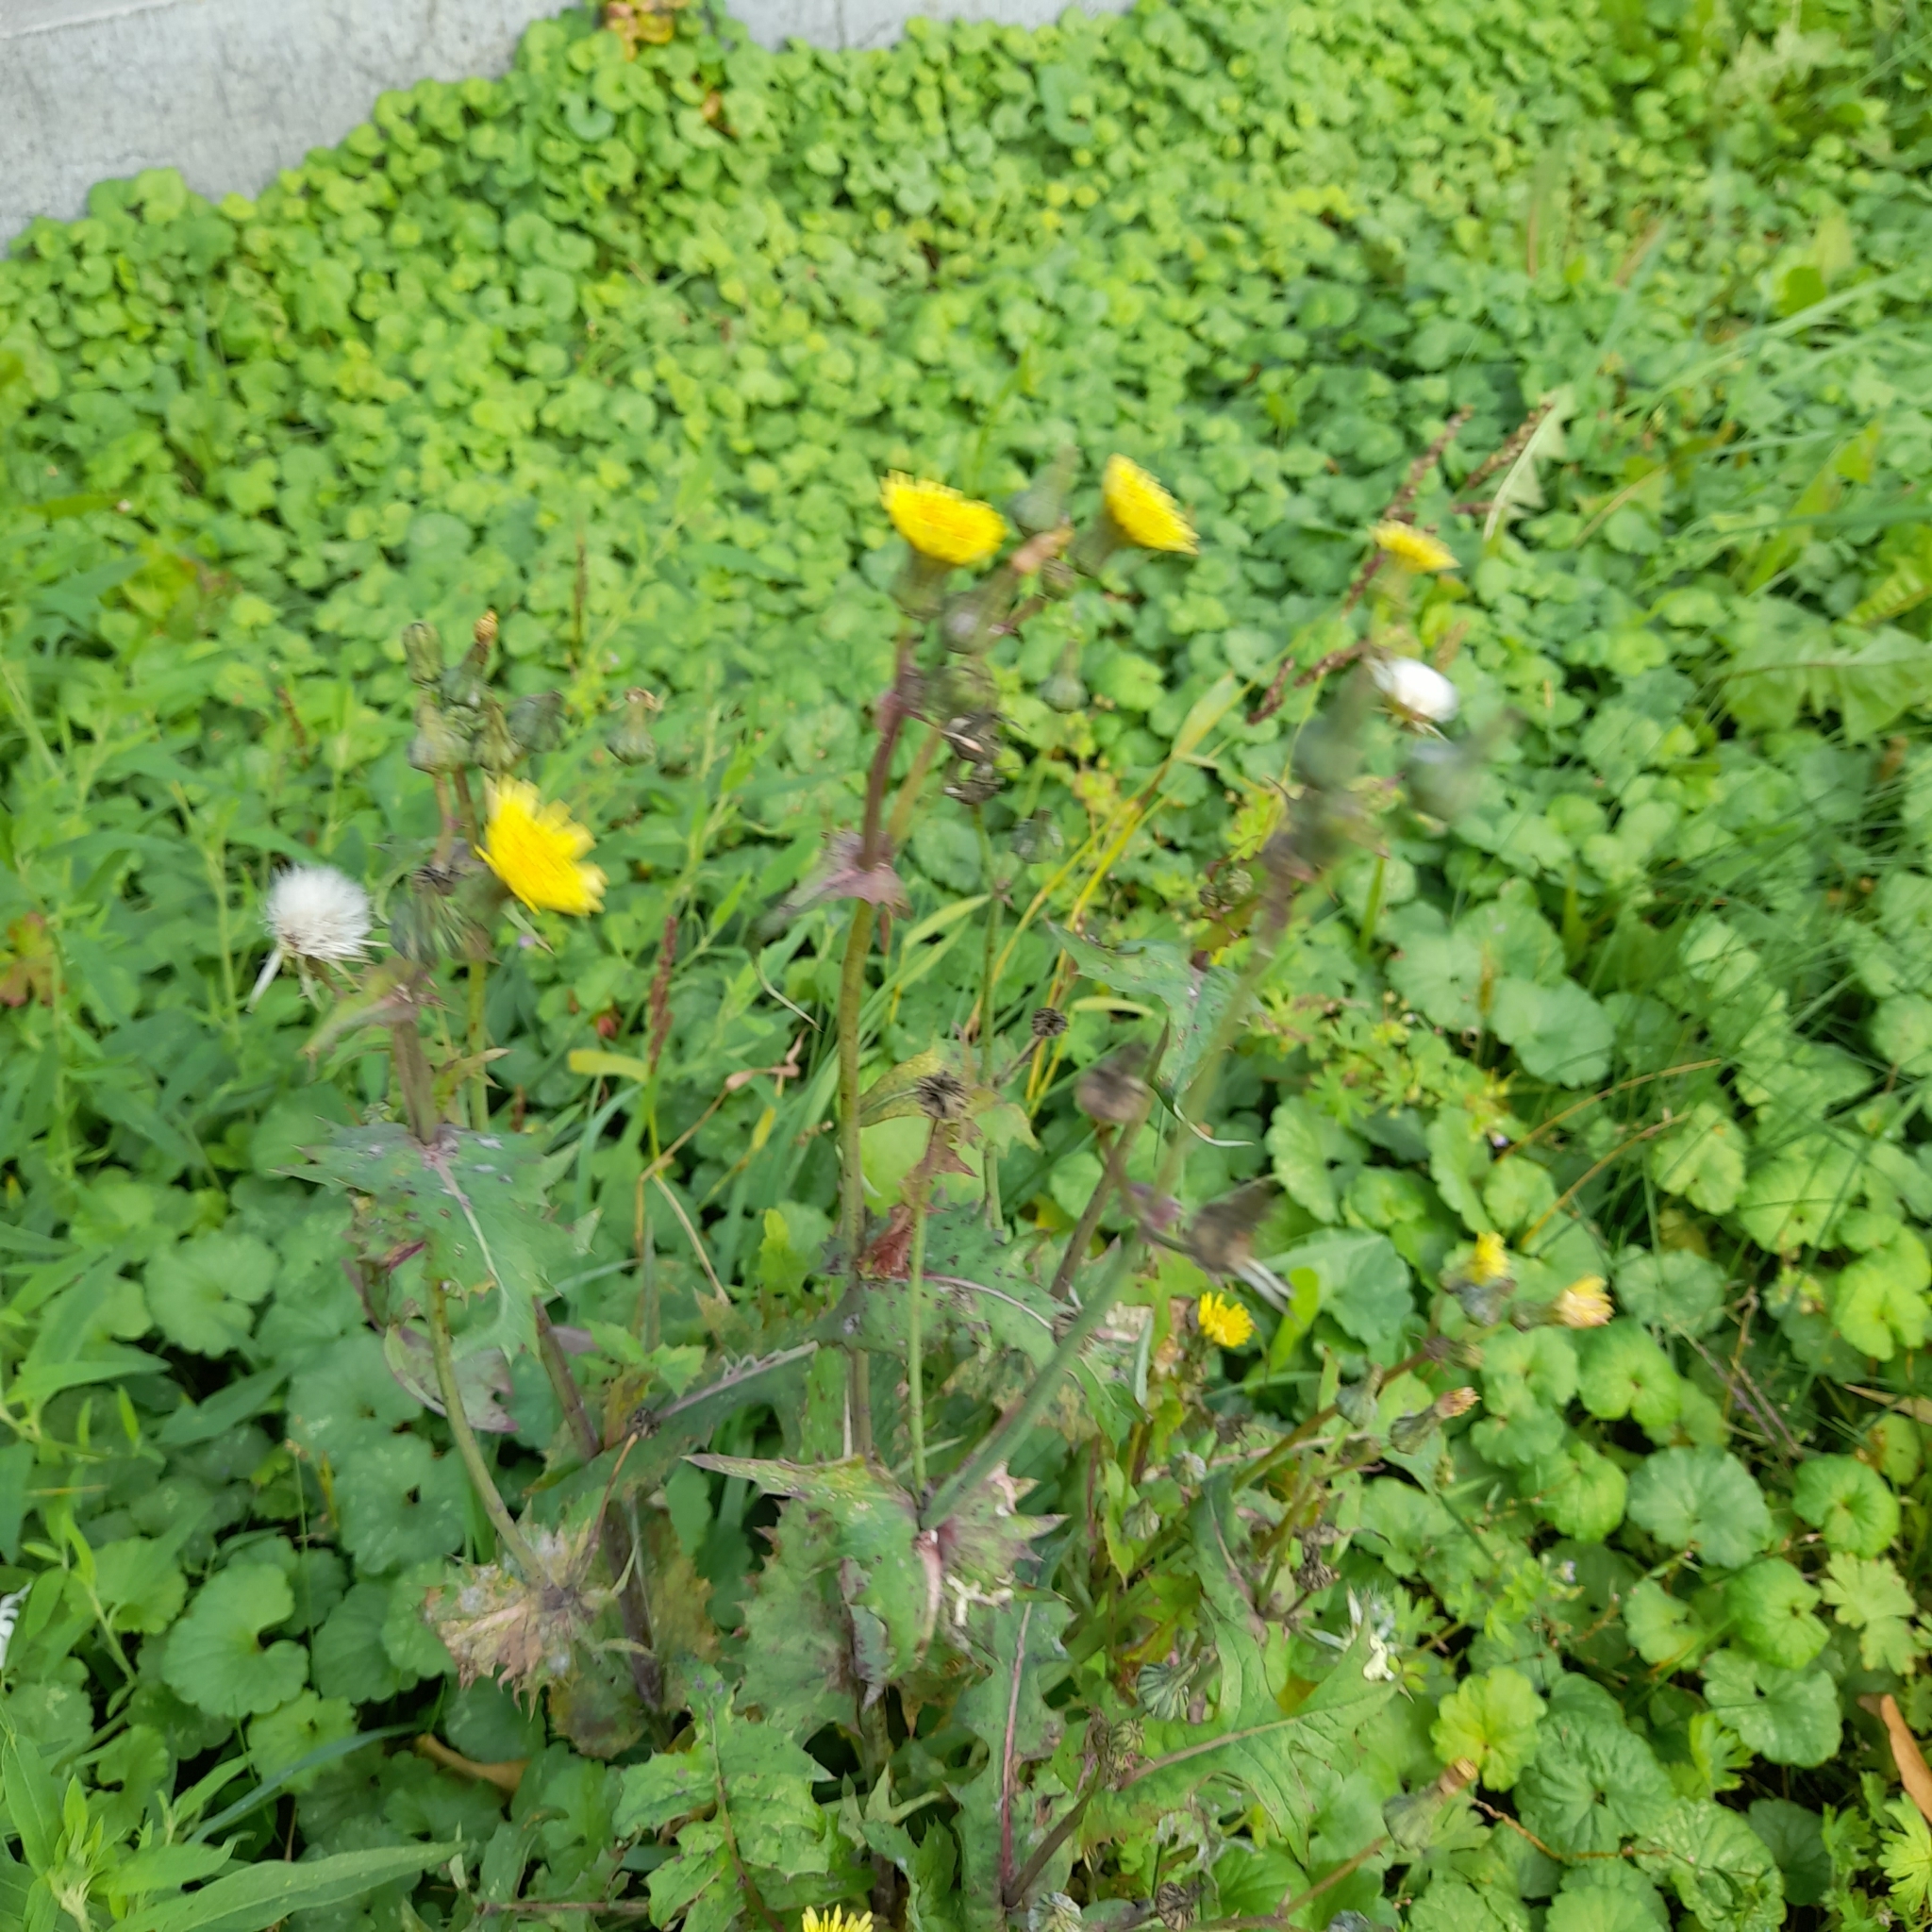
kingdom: Plantae
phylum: Tracheophyta
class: Magnoliopsida
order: Asterales
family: Asteraceae
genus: Sonchus
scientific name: Sonchus oleraceus
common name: Common sowthistle
